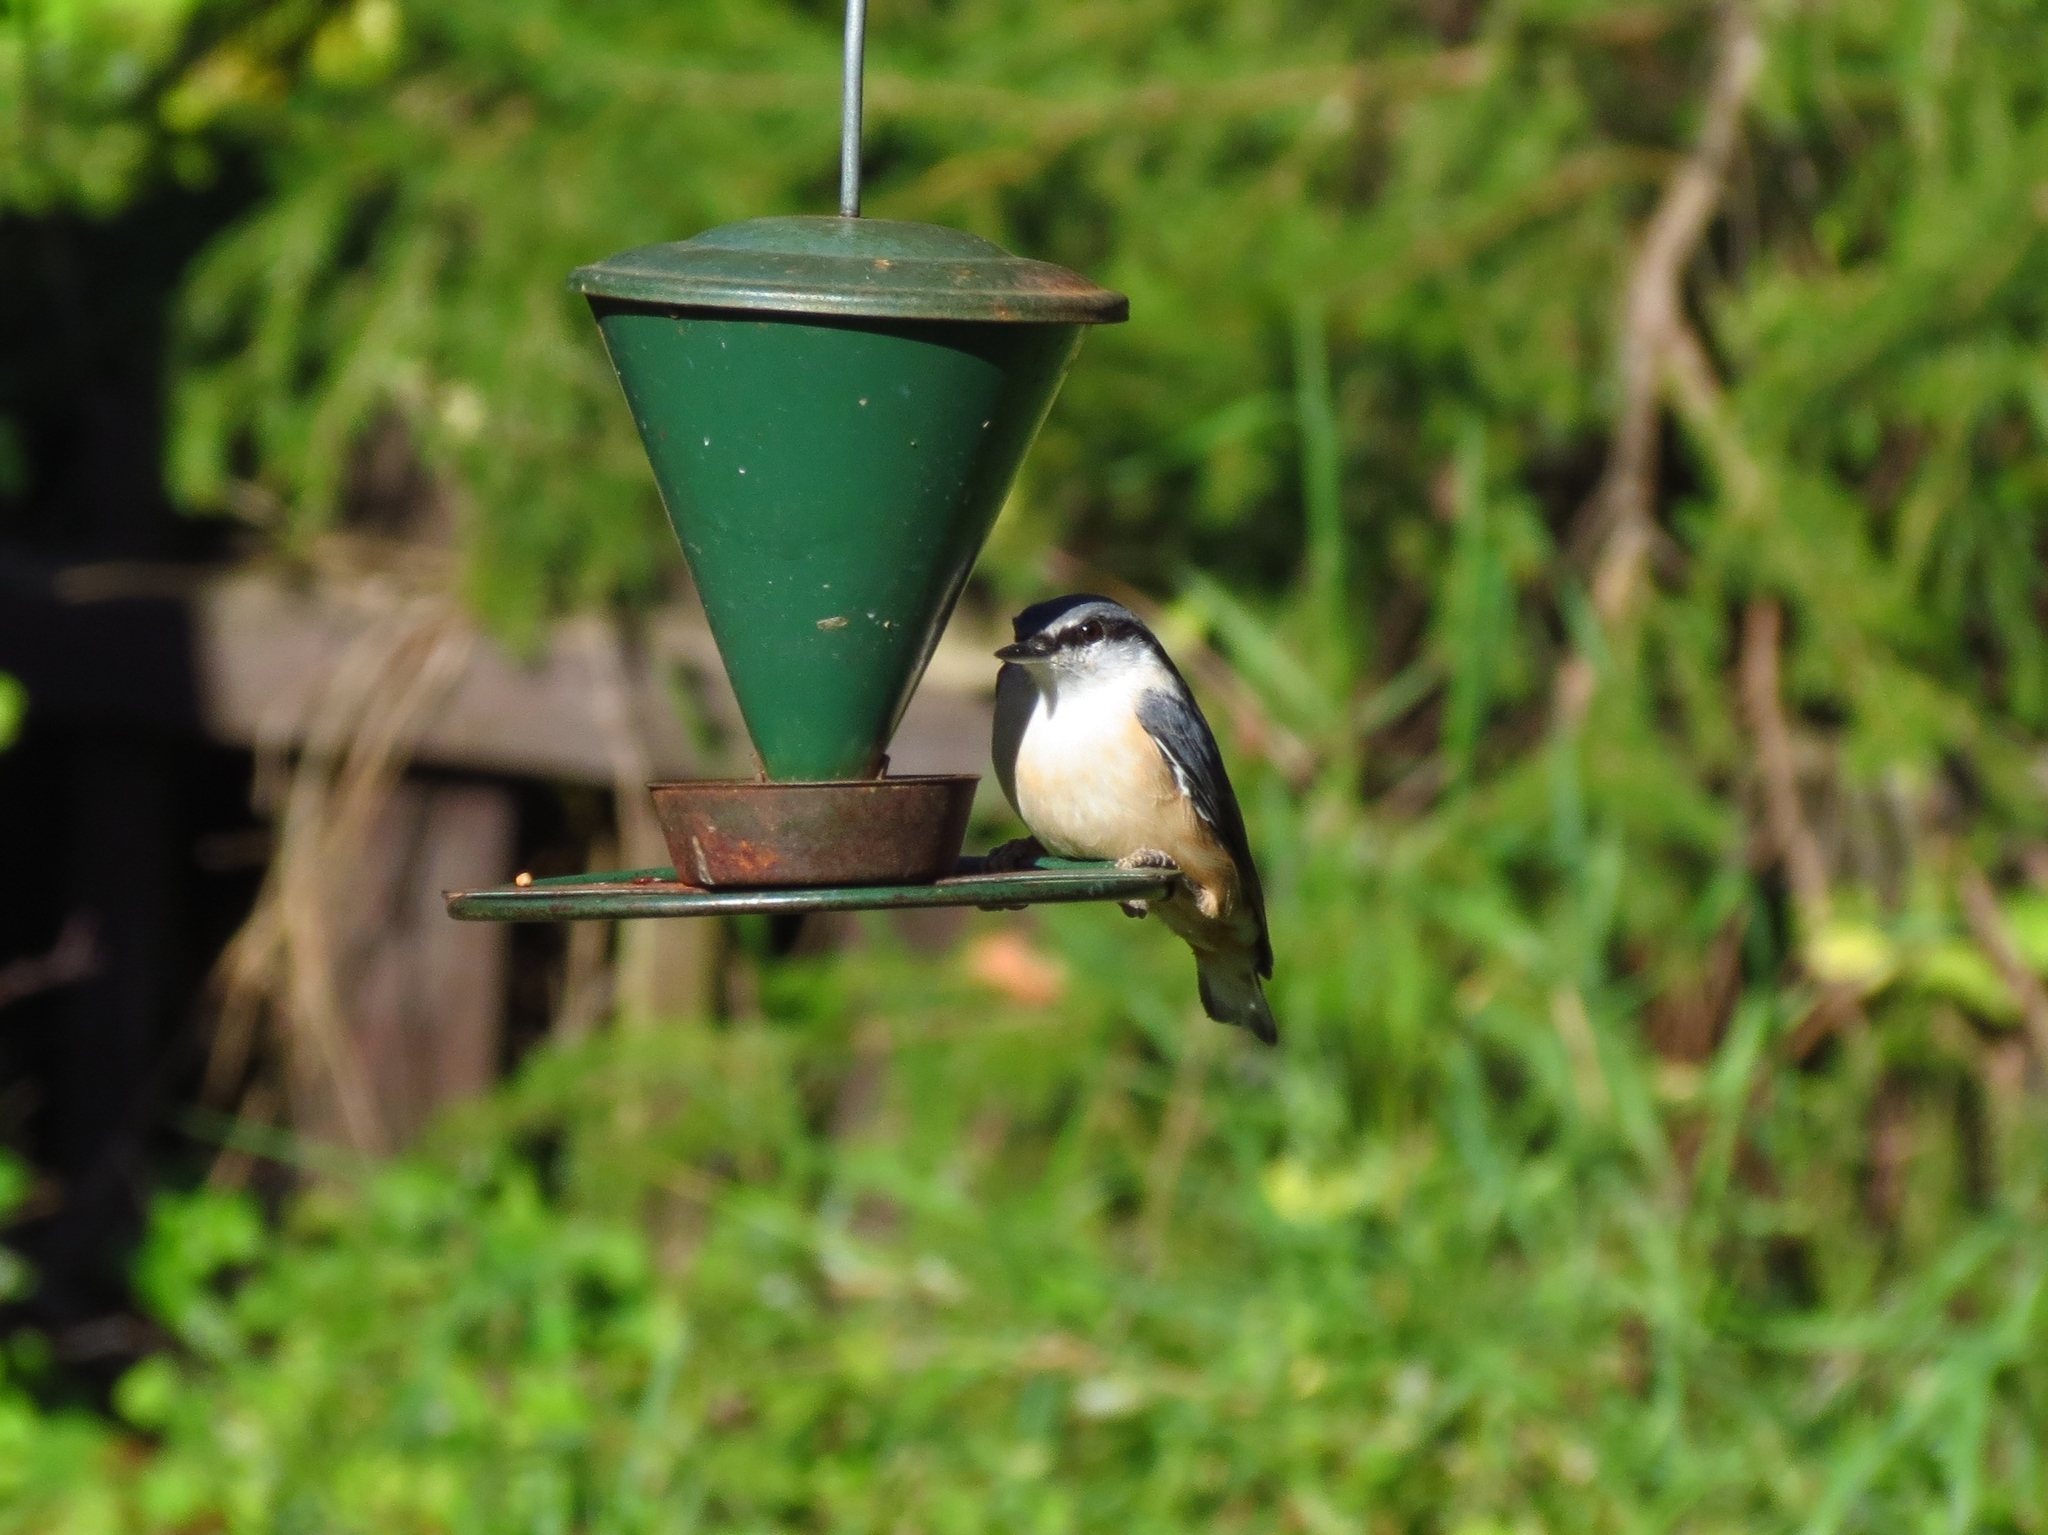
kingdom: Animalia
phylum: Chordata
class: Aves
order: Passeriformes
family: Sittidae
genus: Sitta
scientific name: Sitta europaea
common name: Eurasian nuthatch
